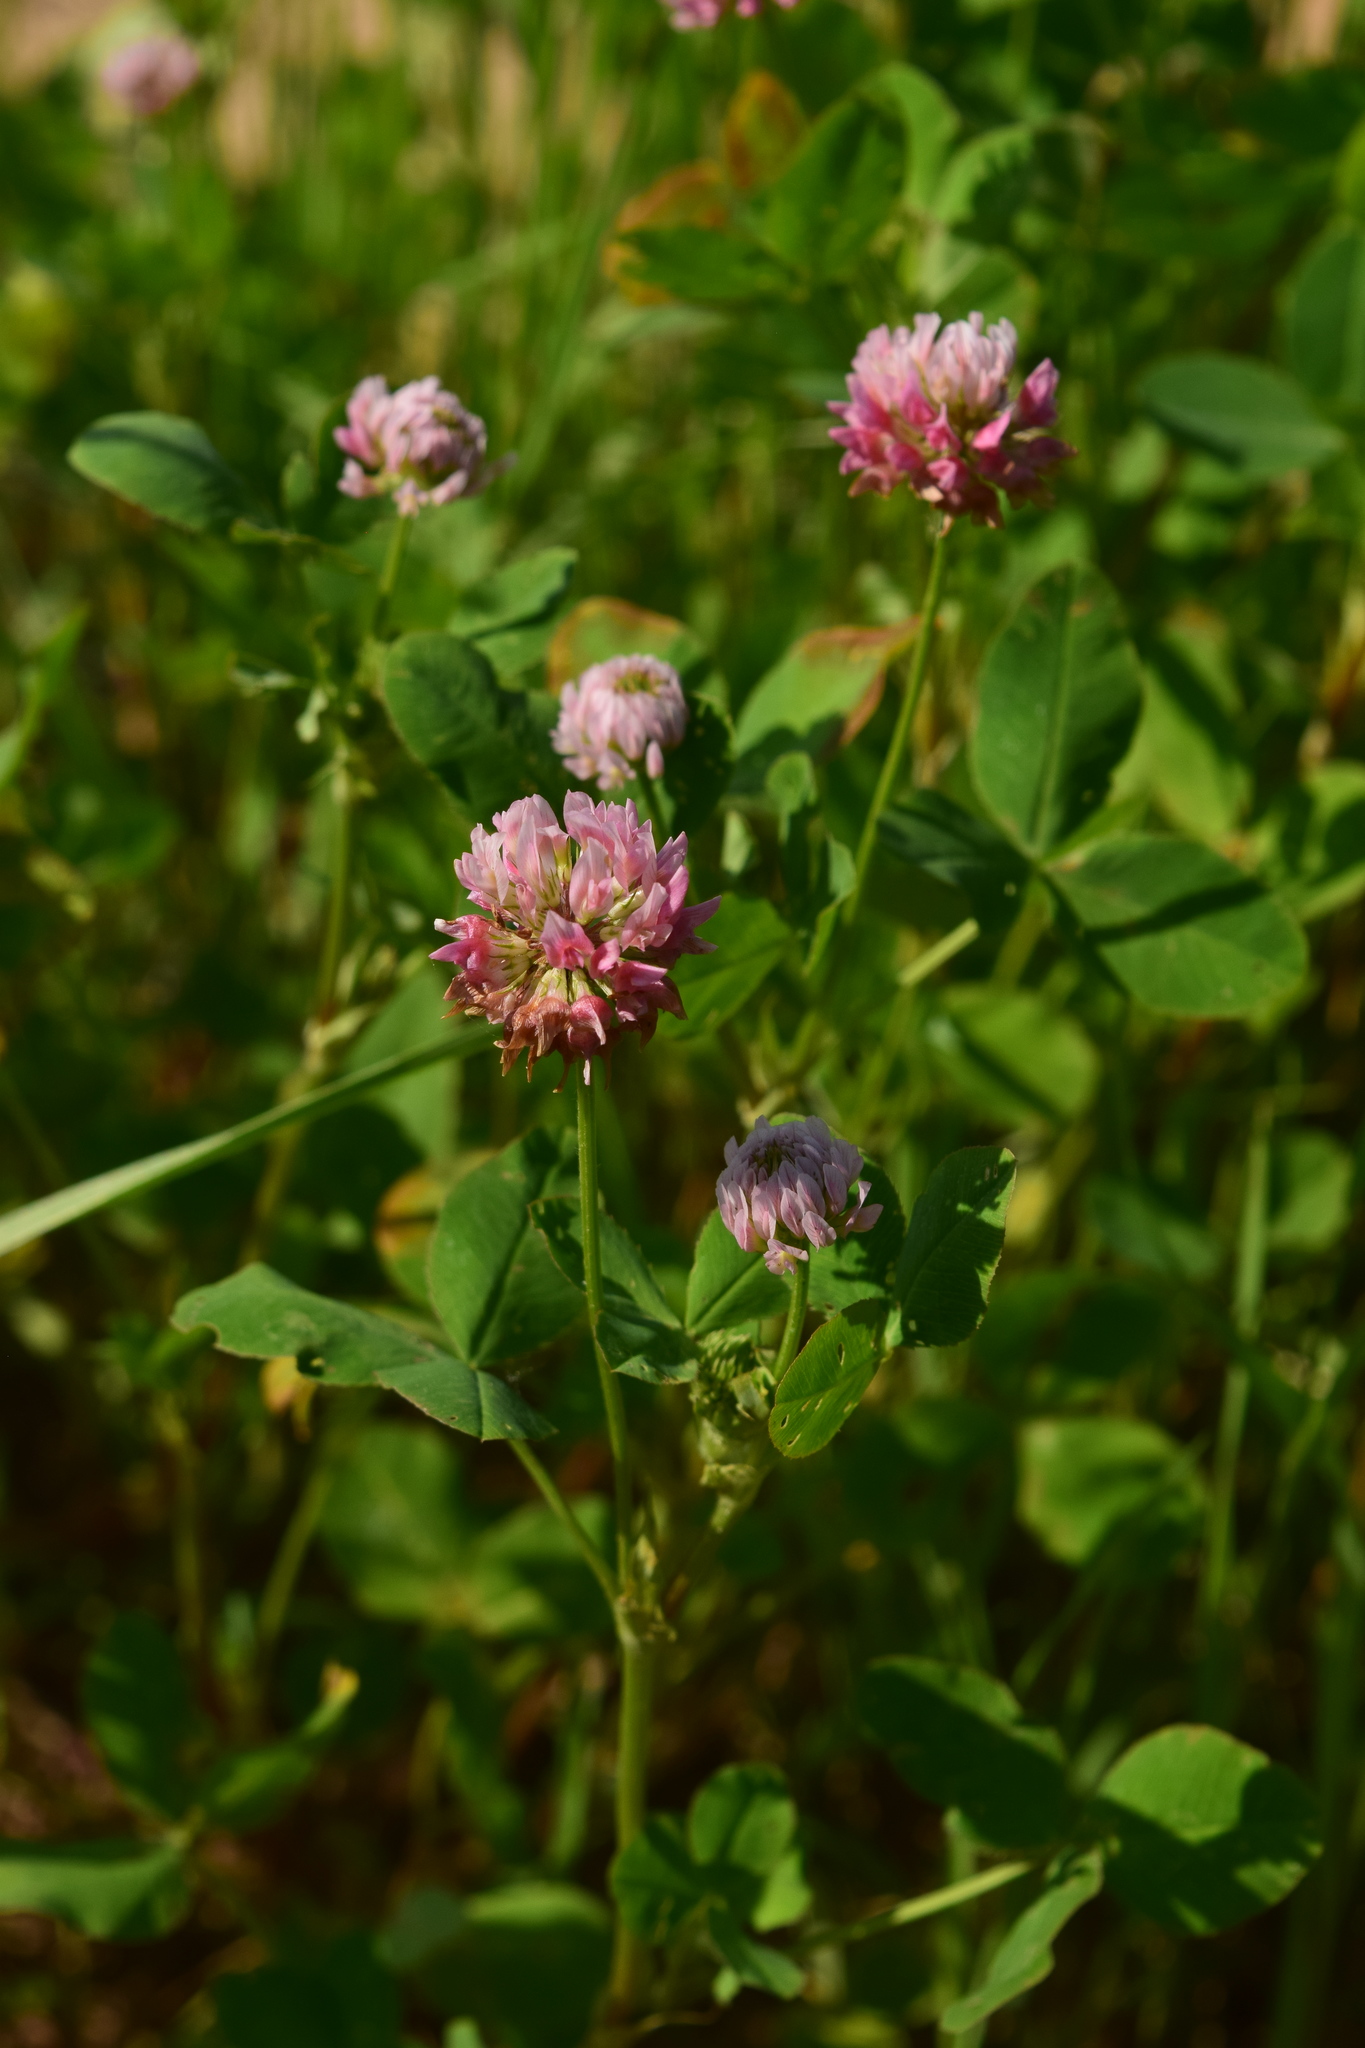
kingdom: Plantae
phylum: Tracheophyta
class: Magnoliopsida
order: Fabales
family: Fabaceae
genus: Trifolium
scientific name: Trifolium hybridum
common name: Alsike clover
